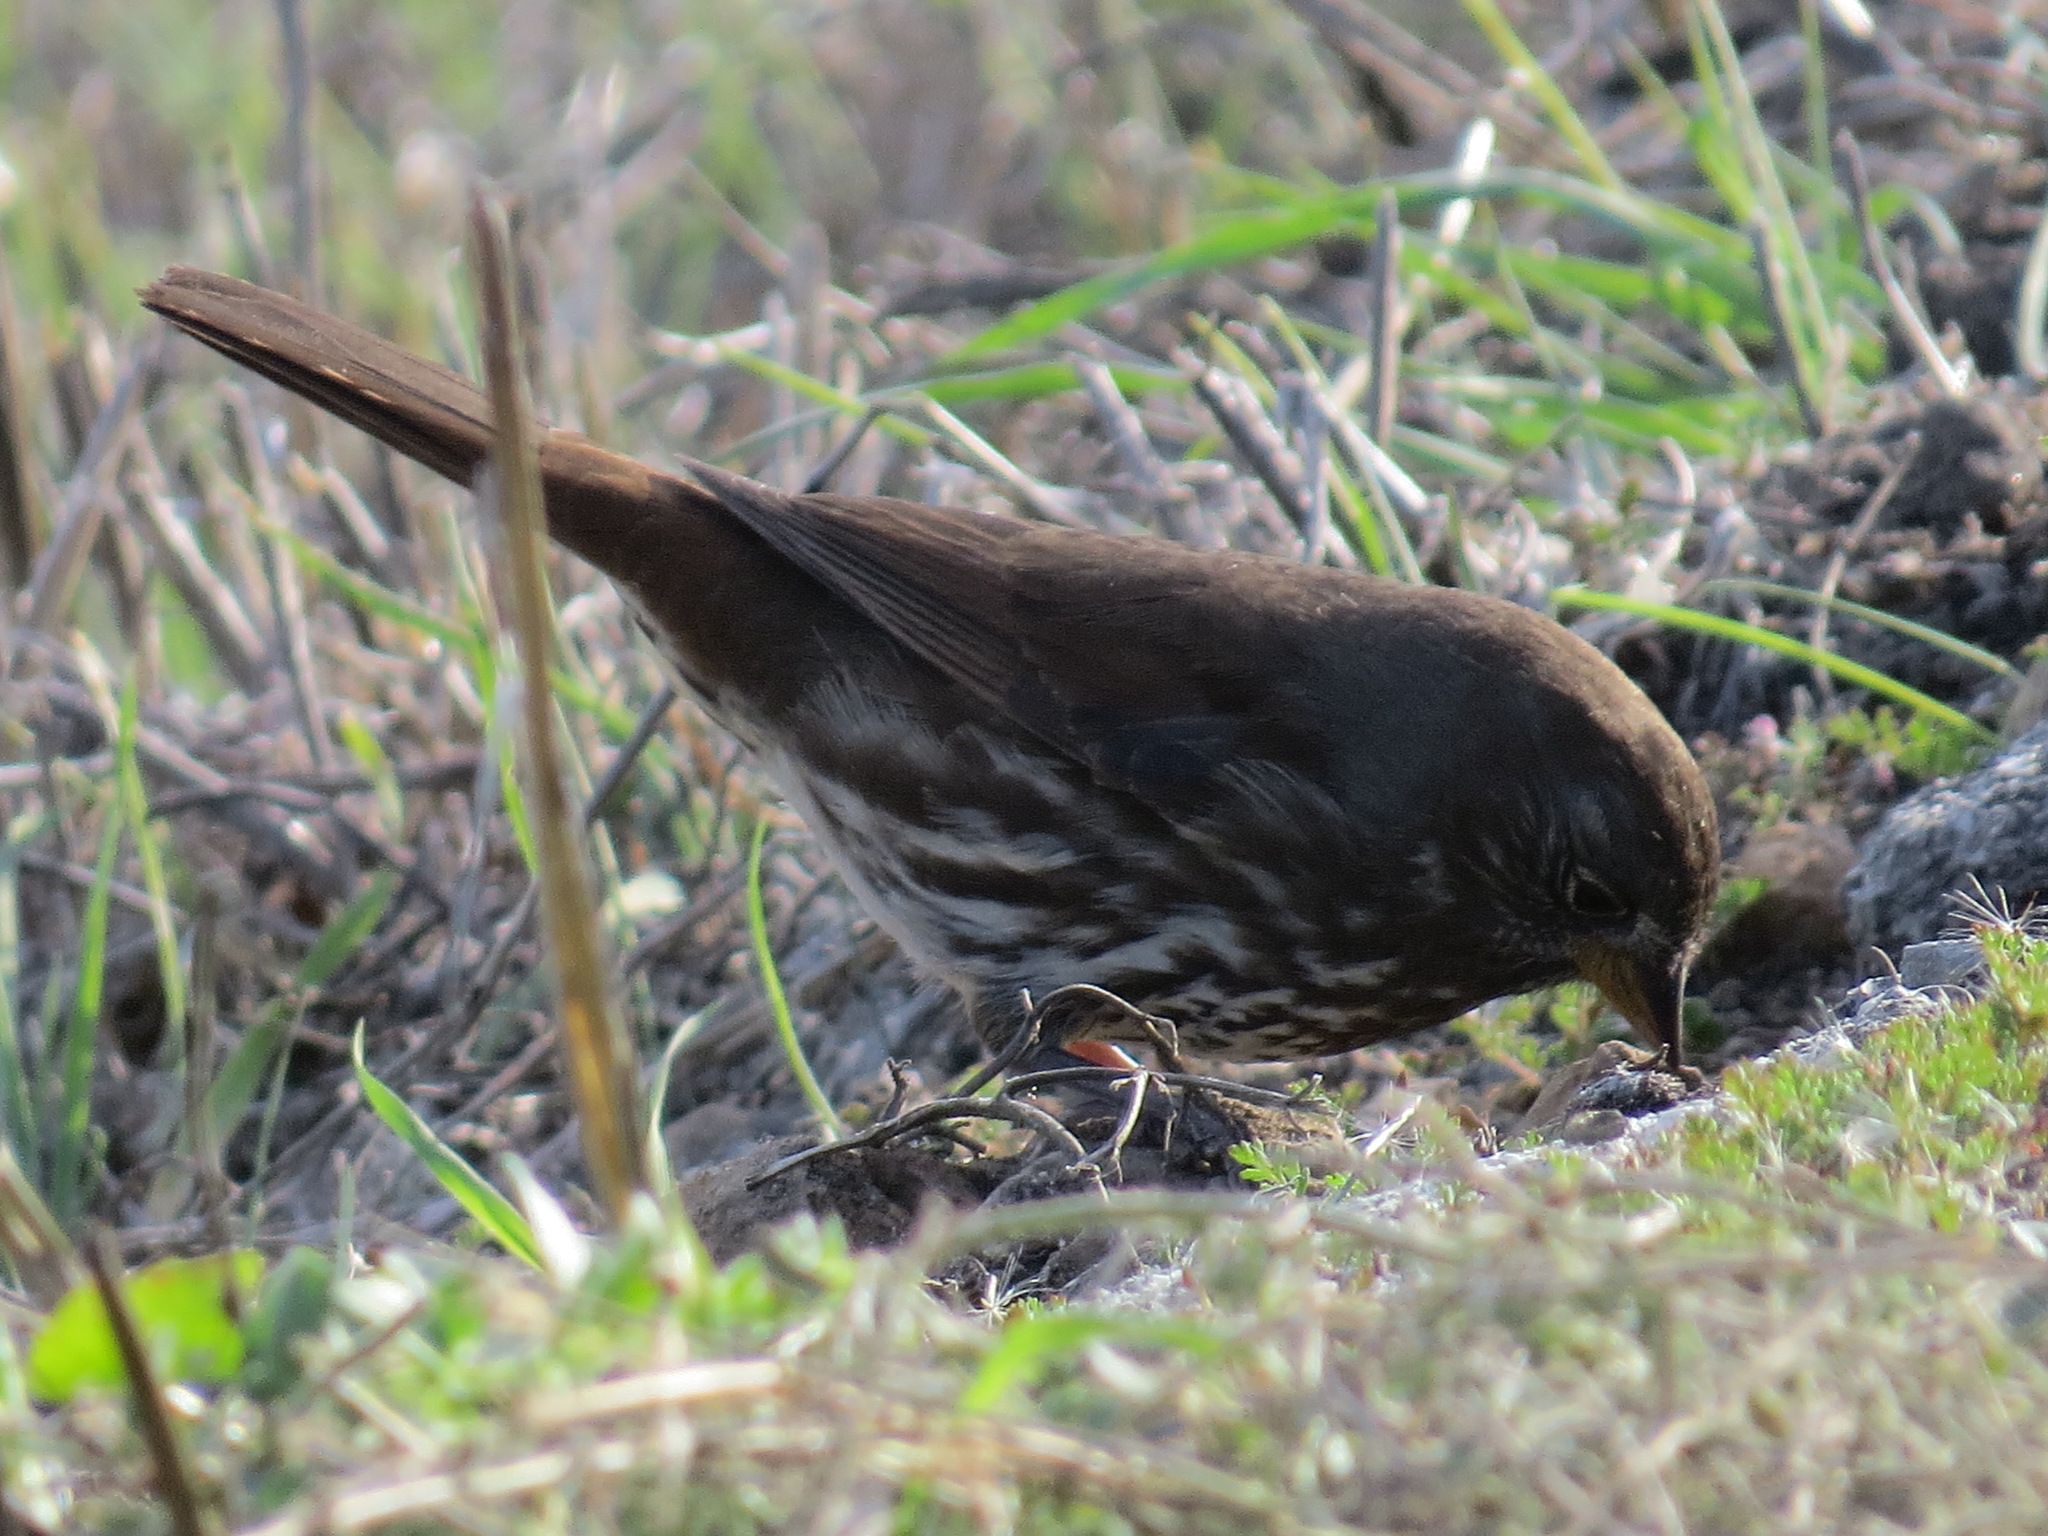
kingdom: Animalia
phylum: Chordata
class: Aves
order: Passeriformes
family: Passerellidae
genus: Passerella
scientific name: Passerella iliaca
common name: Fox sparrow
